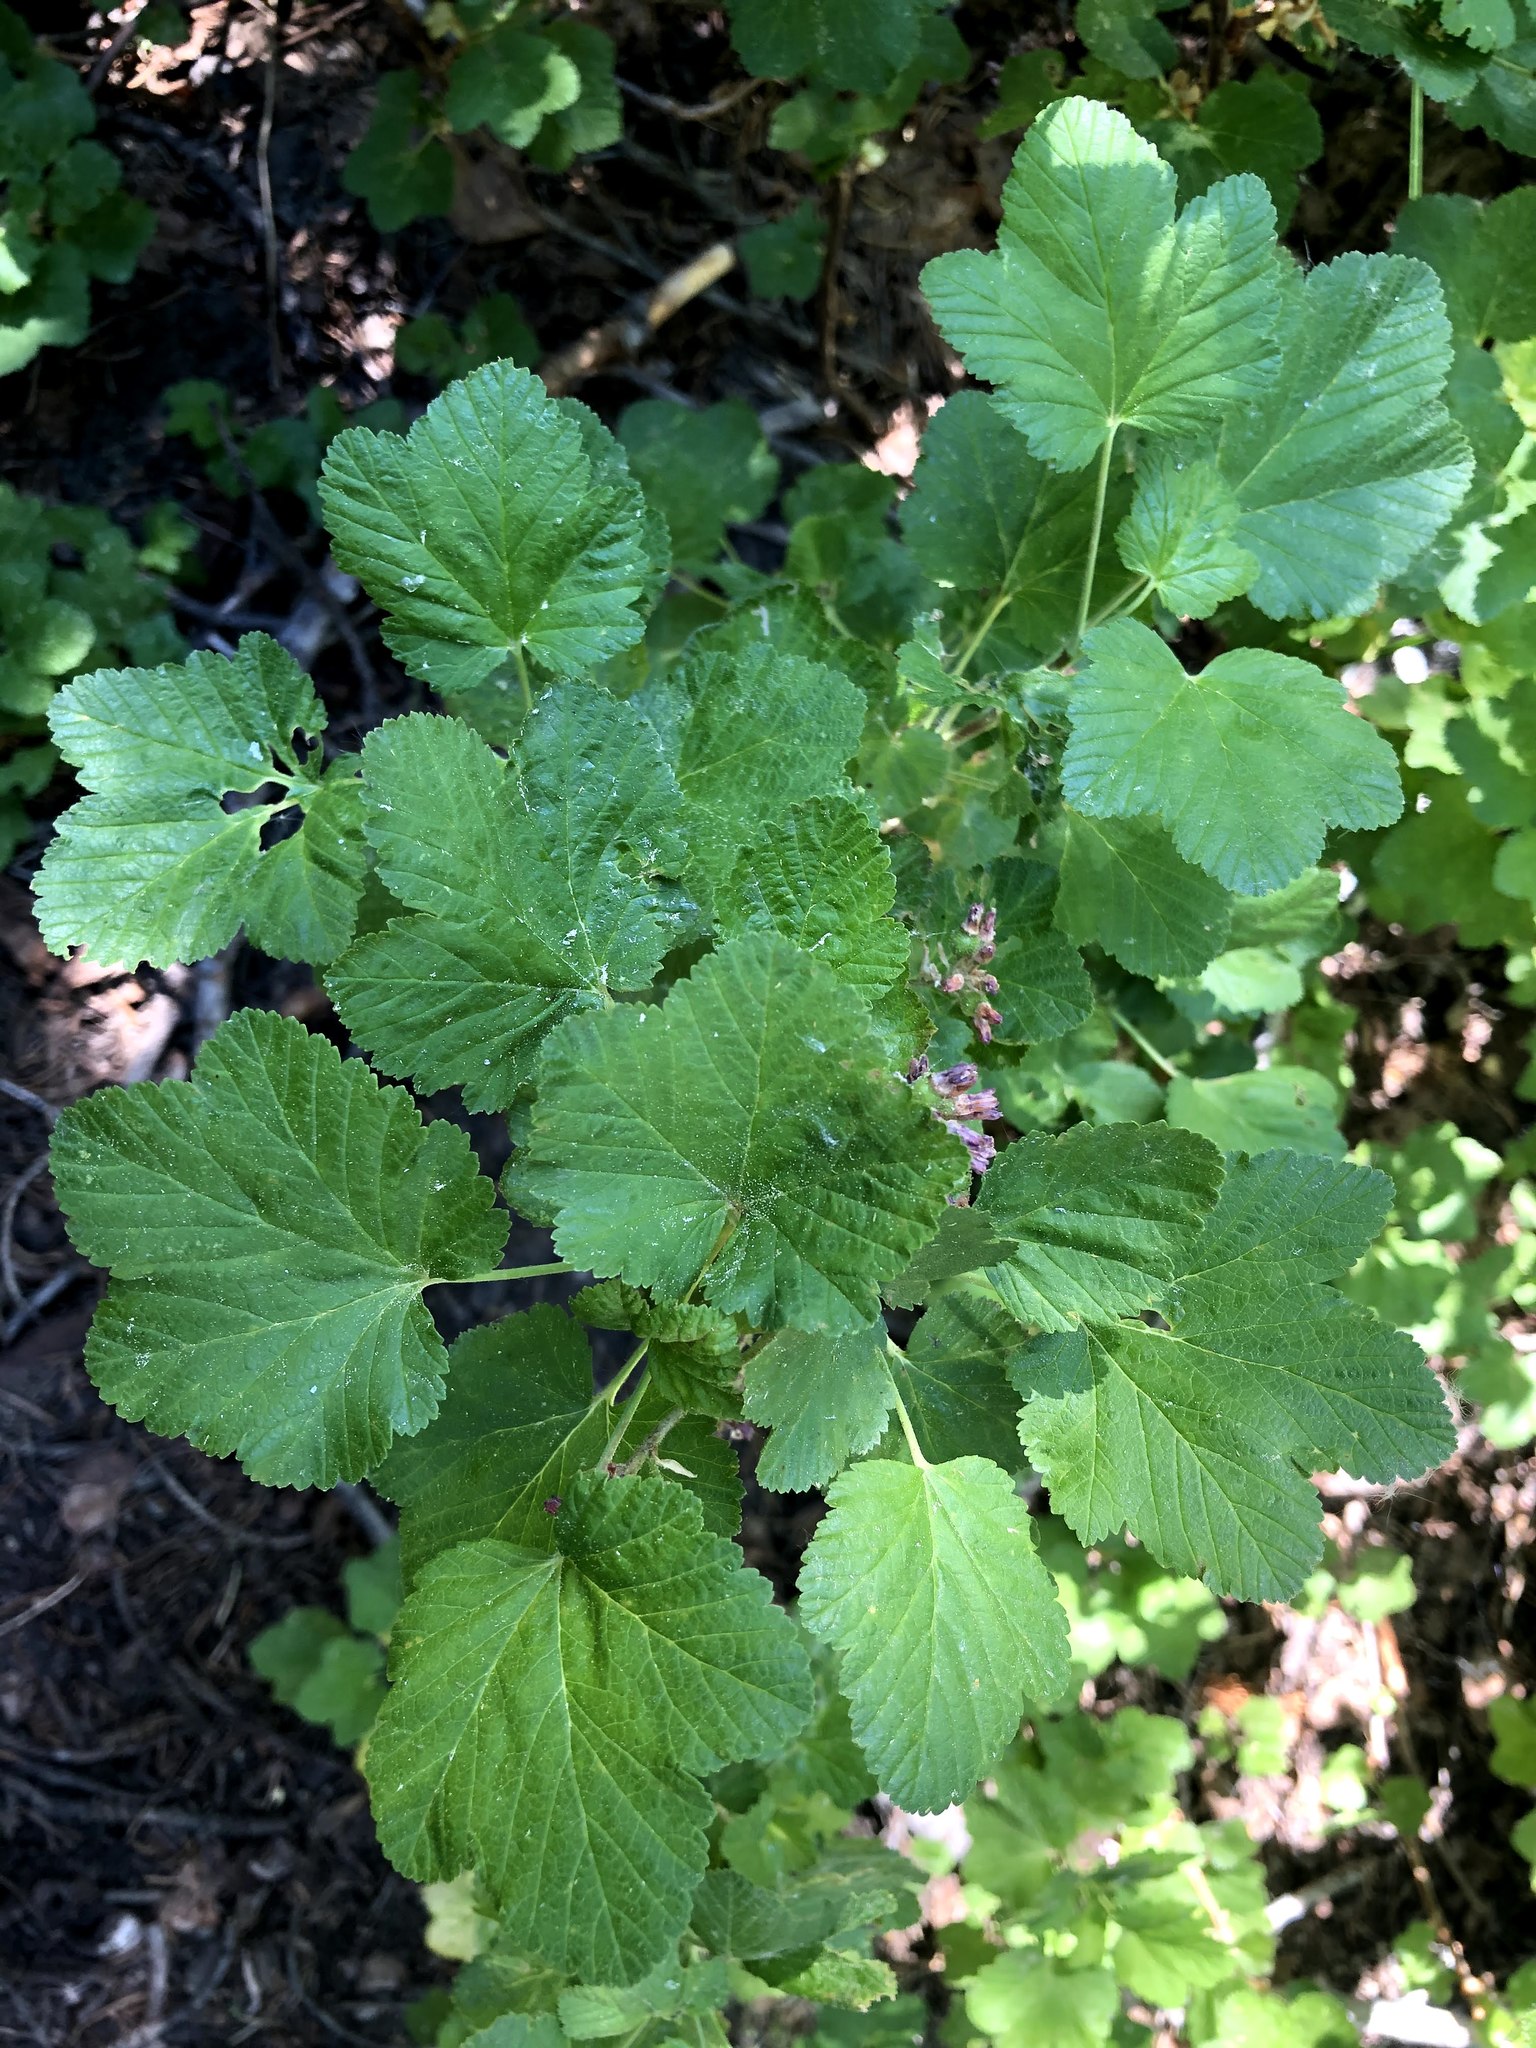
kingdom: Plantae
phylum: Tracheophyta
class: Magnoliopsida
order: Saxifragales
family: Grossulariaceae
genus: Ribes
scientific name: Ribes nevadense
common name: Mountain pink currant
